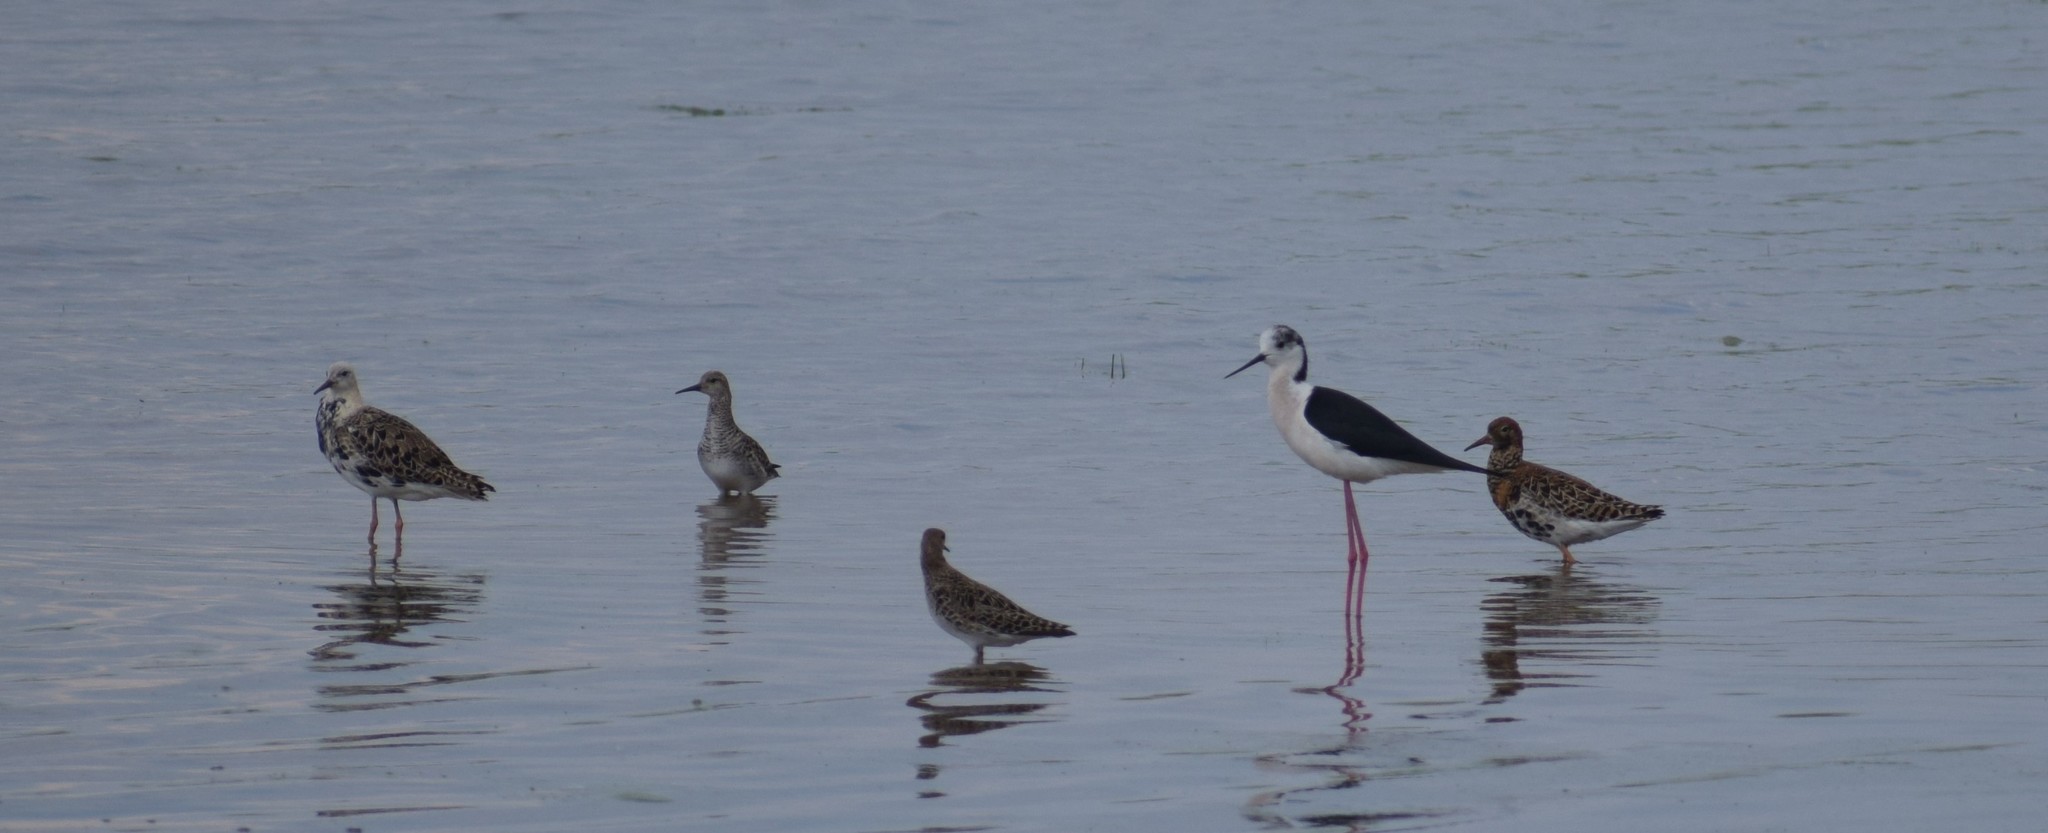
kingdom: Animalia
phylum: Chordata
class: Aves
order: Charadriiformes
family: Recurvirostridae
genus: Himantopus
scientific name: Himantopus himantopus
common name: Black-winged stilt
